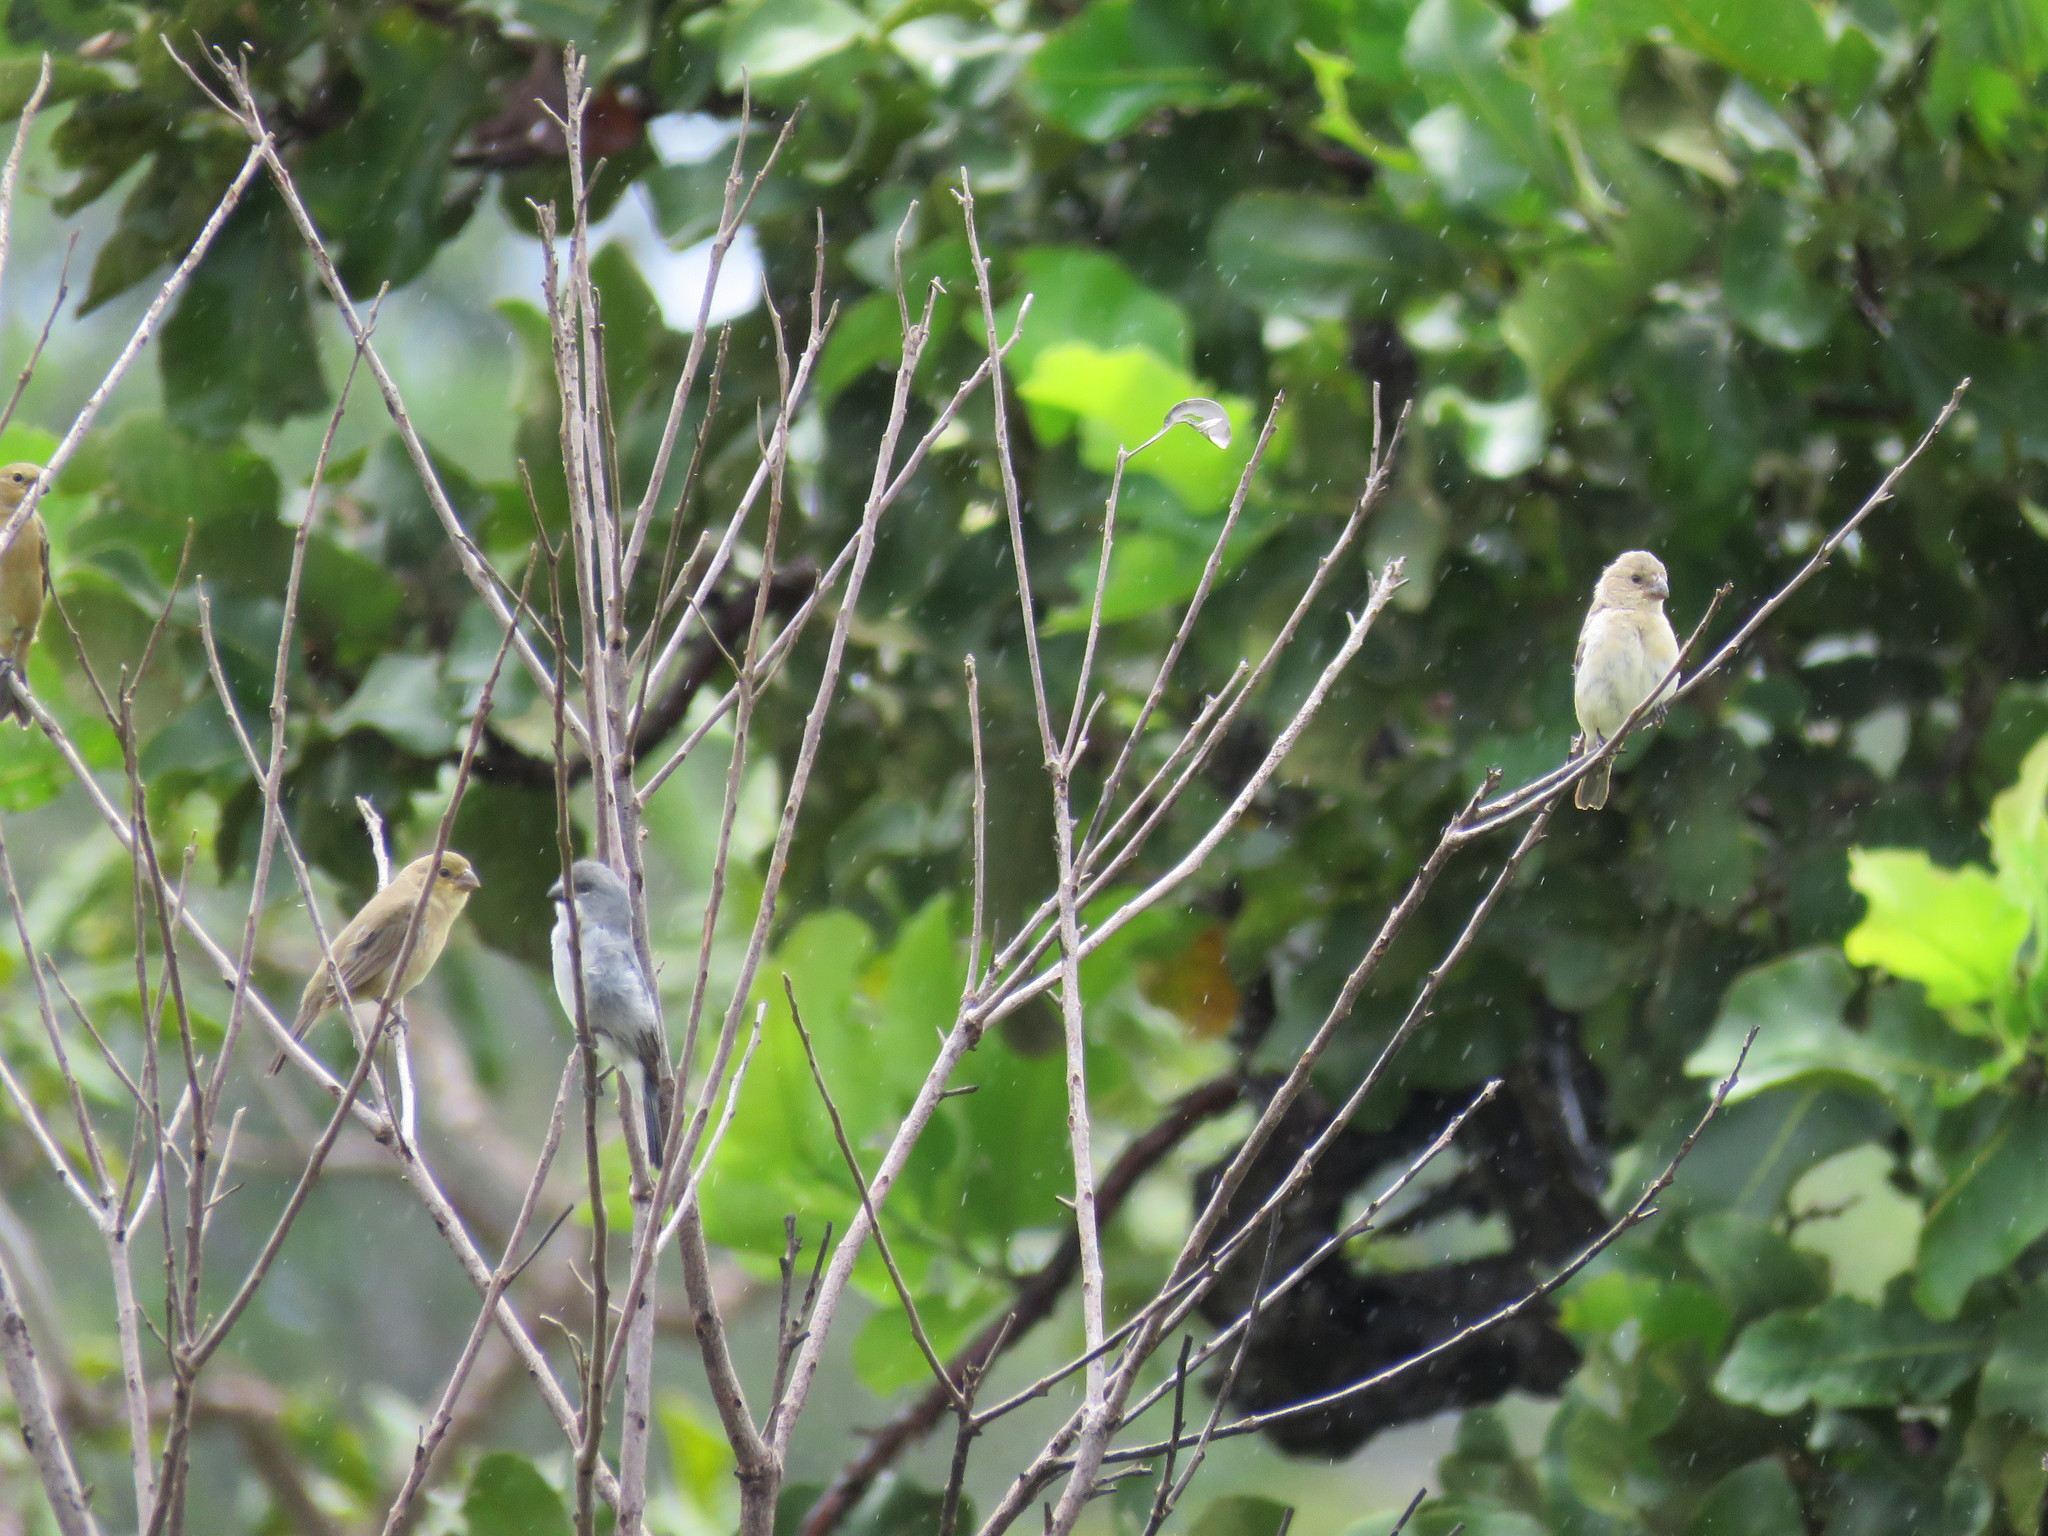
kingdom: Animalia
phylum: Chordata
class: Aves
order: Passeriformes
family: Thraupidae
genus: Sporophila
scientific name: Sporophila plumbea
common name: Plumbeous seedeater
